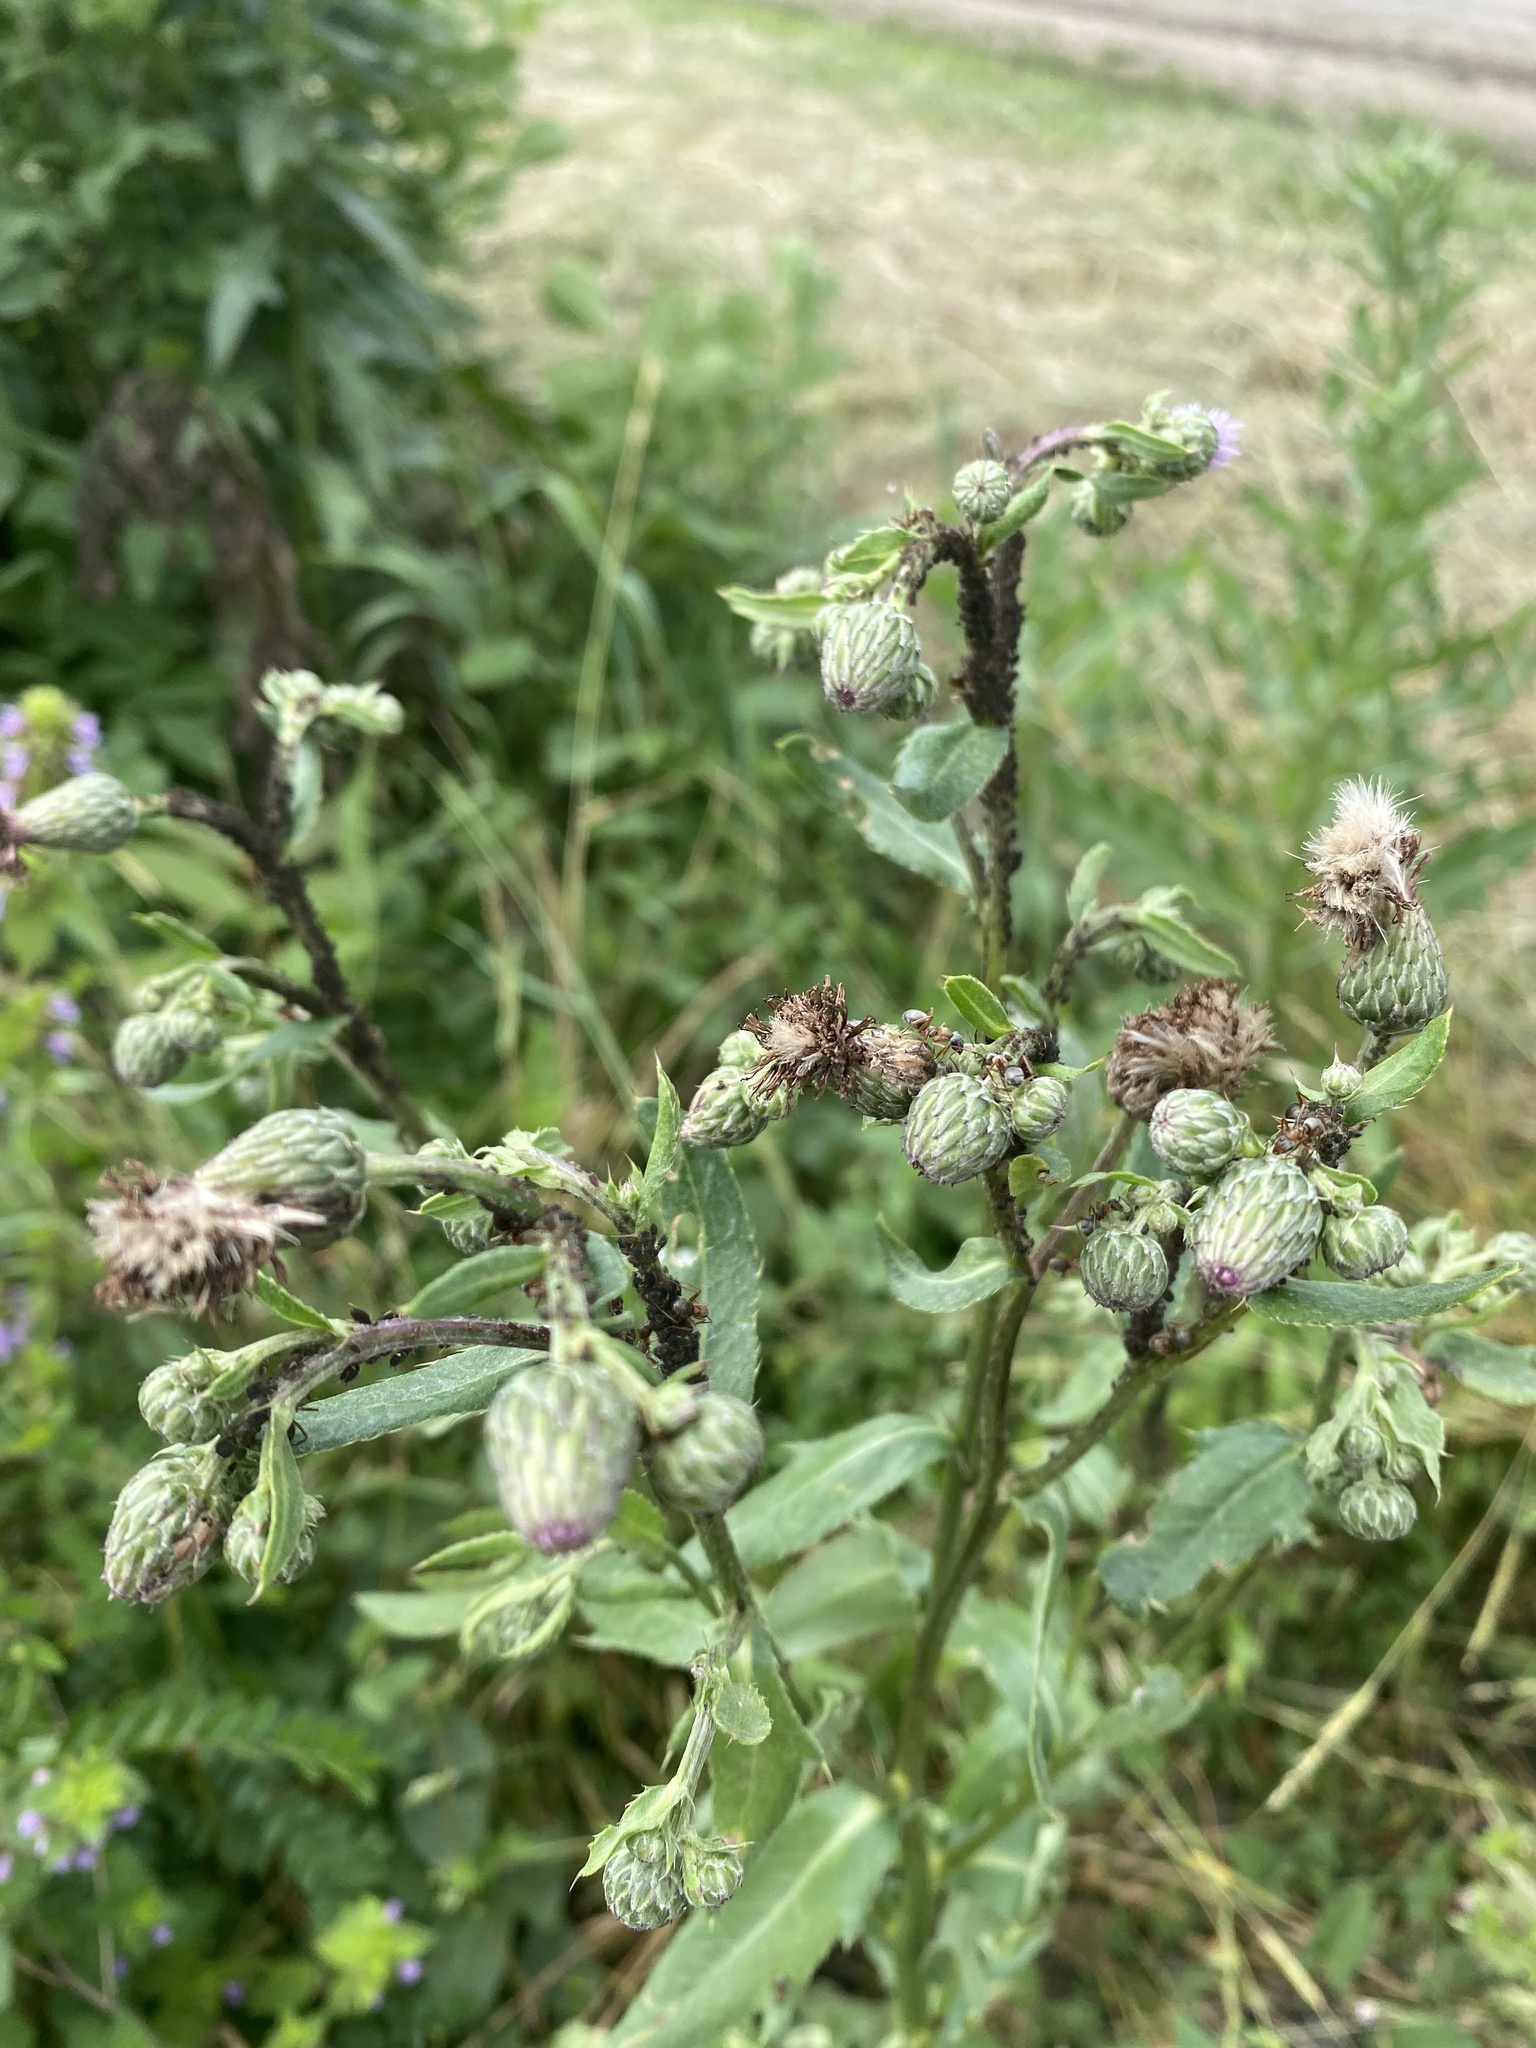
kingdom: Plantae
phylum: Tracheophyta
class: Magnoliopsida
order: Asterales
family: Asteraceae
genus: Cirsium
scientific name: Cirsium arvense
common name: Creeping thistle
